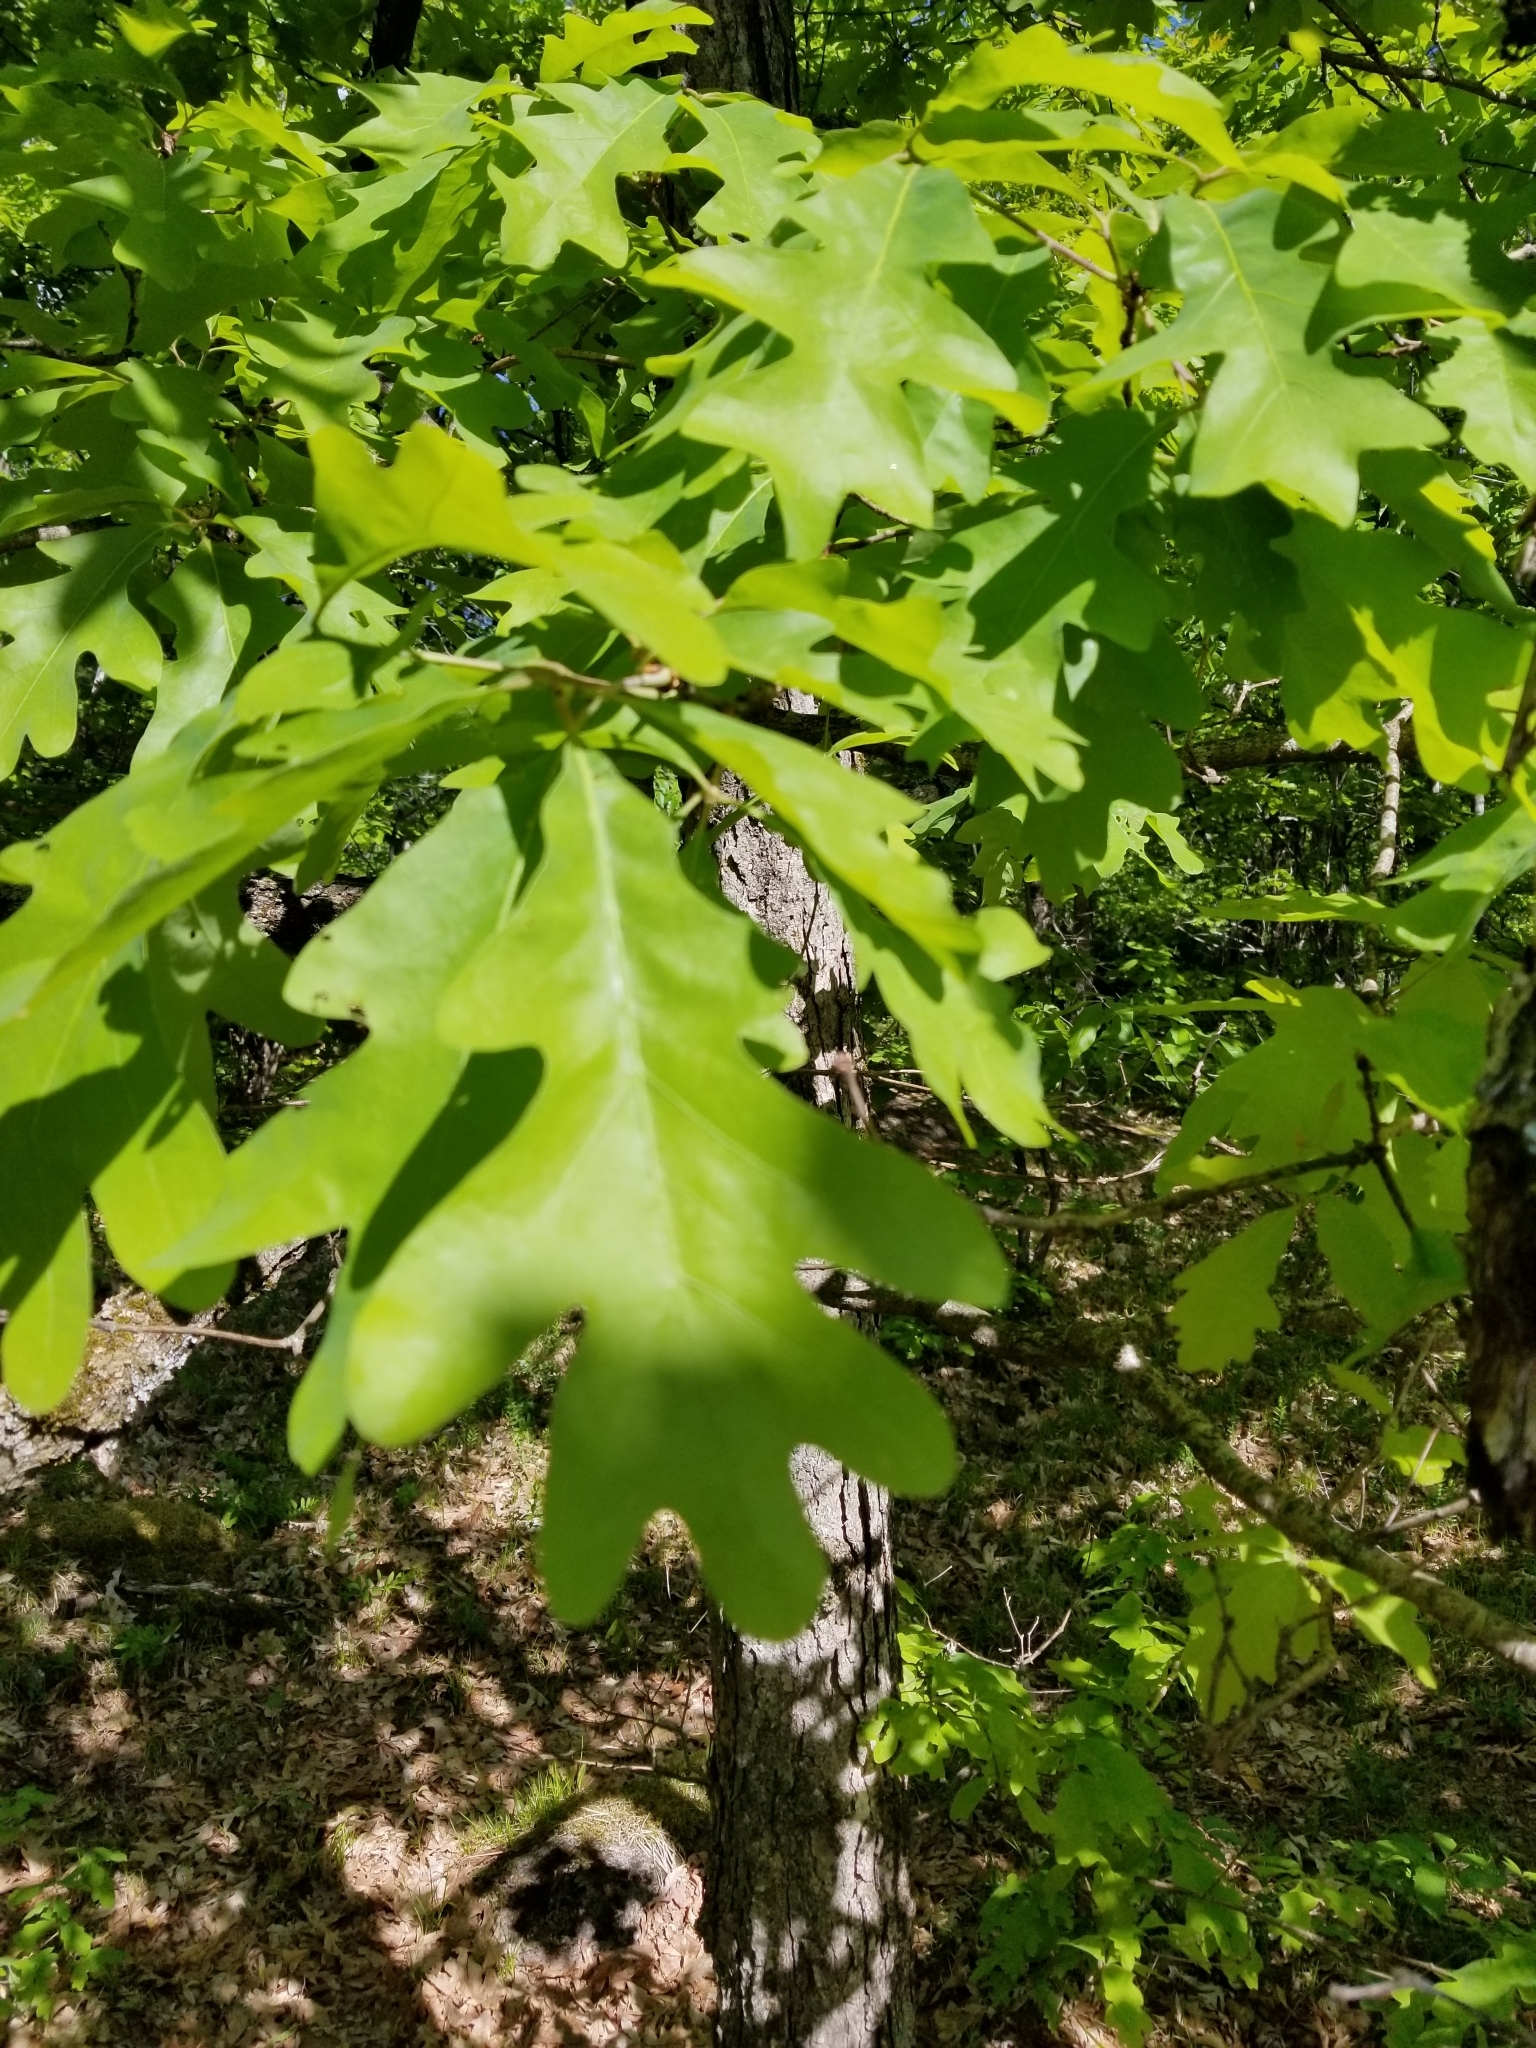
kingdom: Plantae
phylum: Tracheophyta
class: Magnoliopsida
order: Fagales
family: Fagaceae
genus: Quercus
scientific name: Quercus alba
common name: White oak
